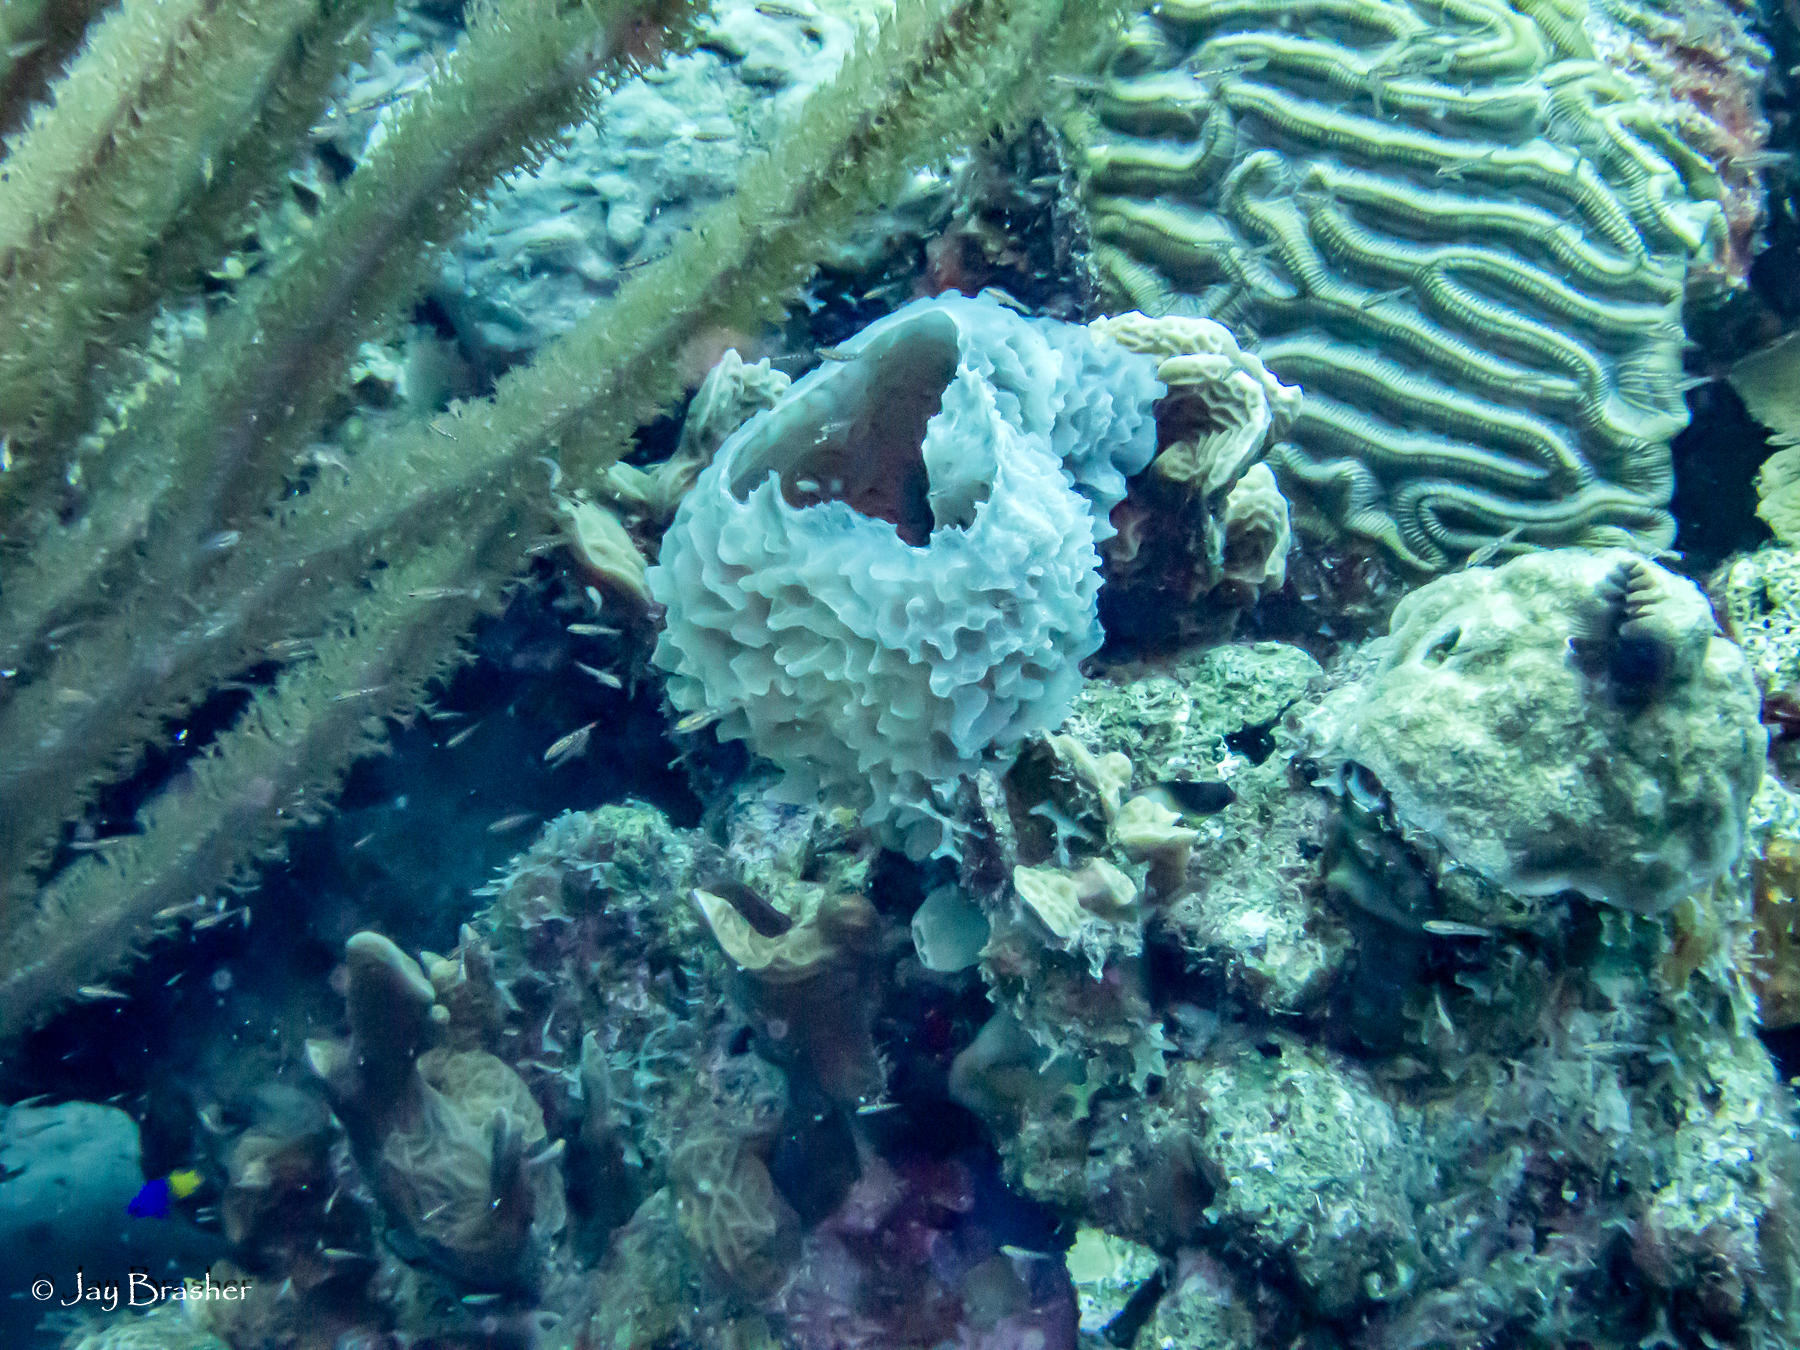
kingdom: Animalia
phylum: Porifera
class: Demospongiae
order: Haplosclerida
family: Callyspongiidae
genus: Callyspongia
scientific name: Callyspongia plicifera
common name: Azure vase sponge
